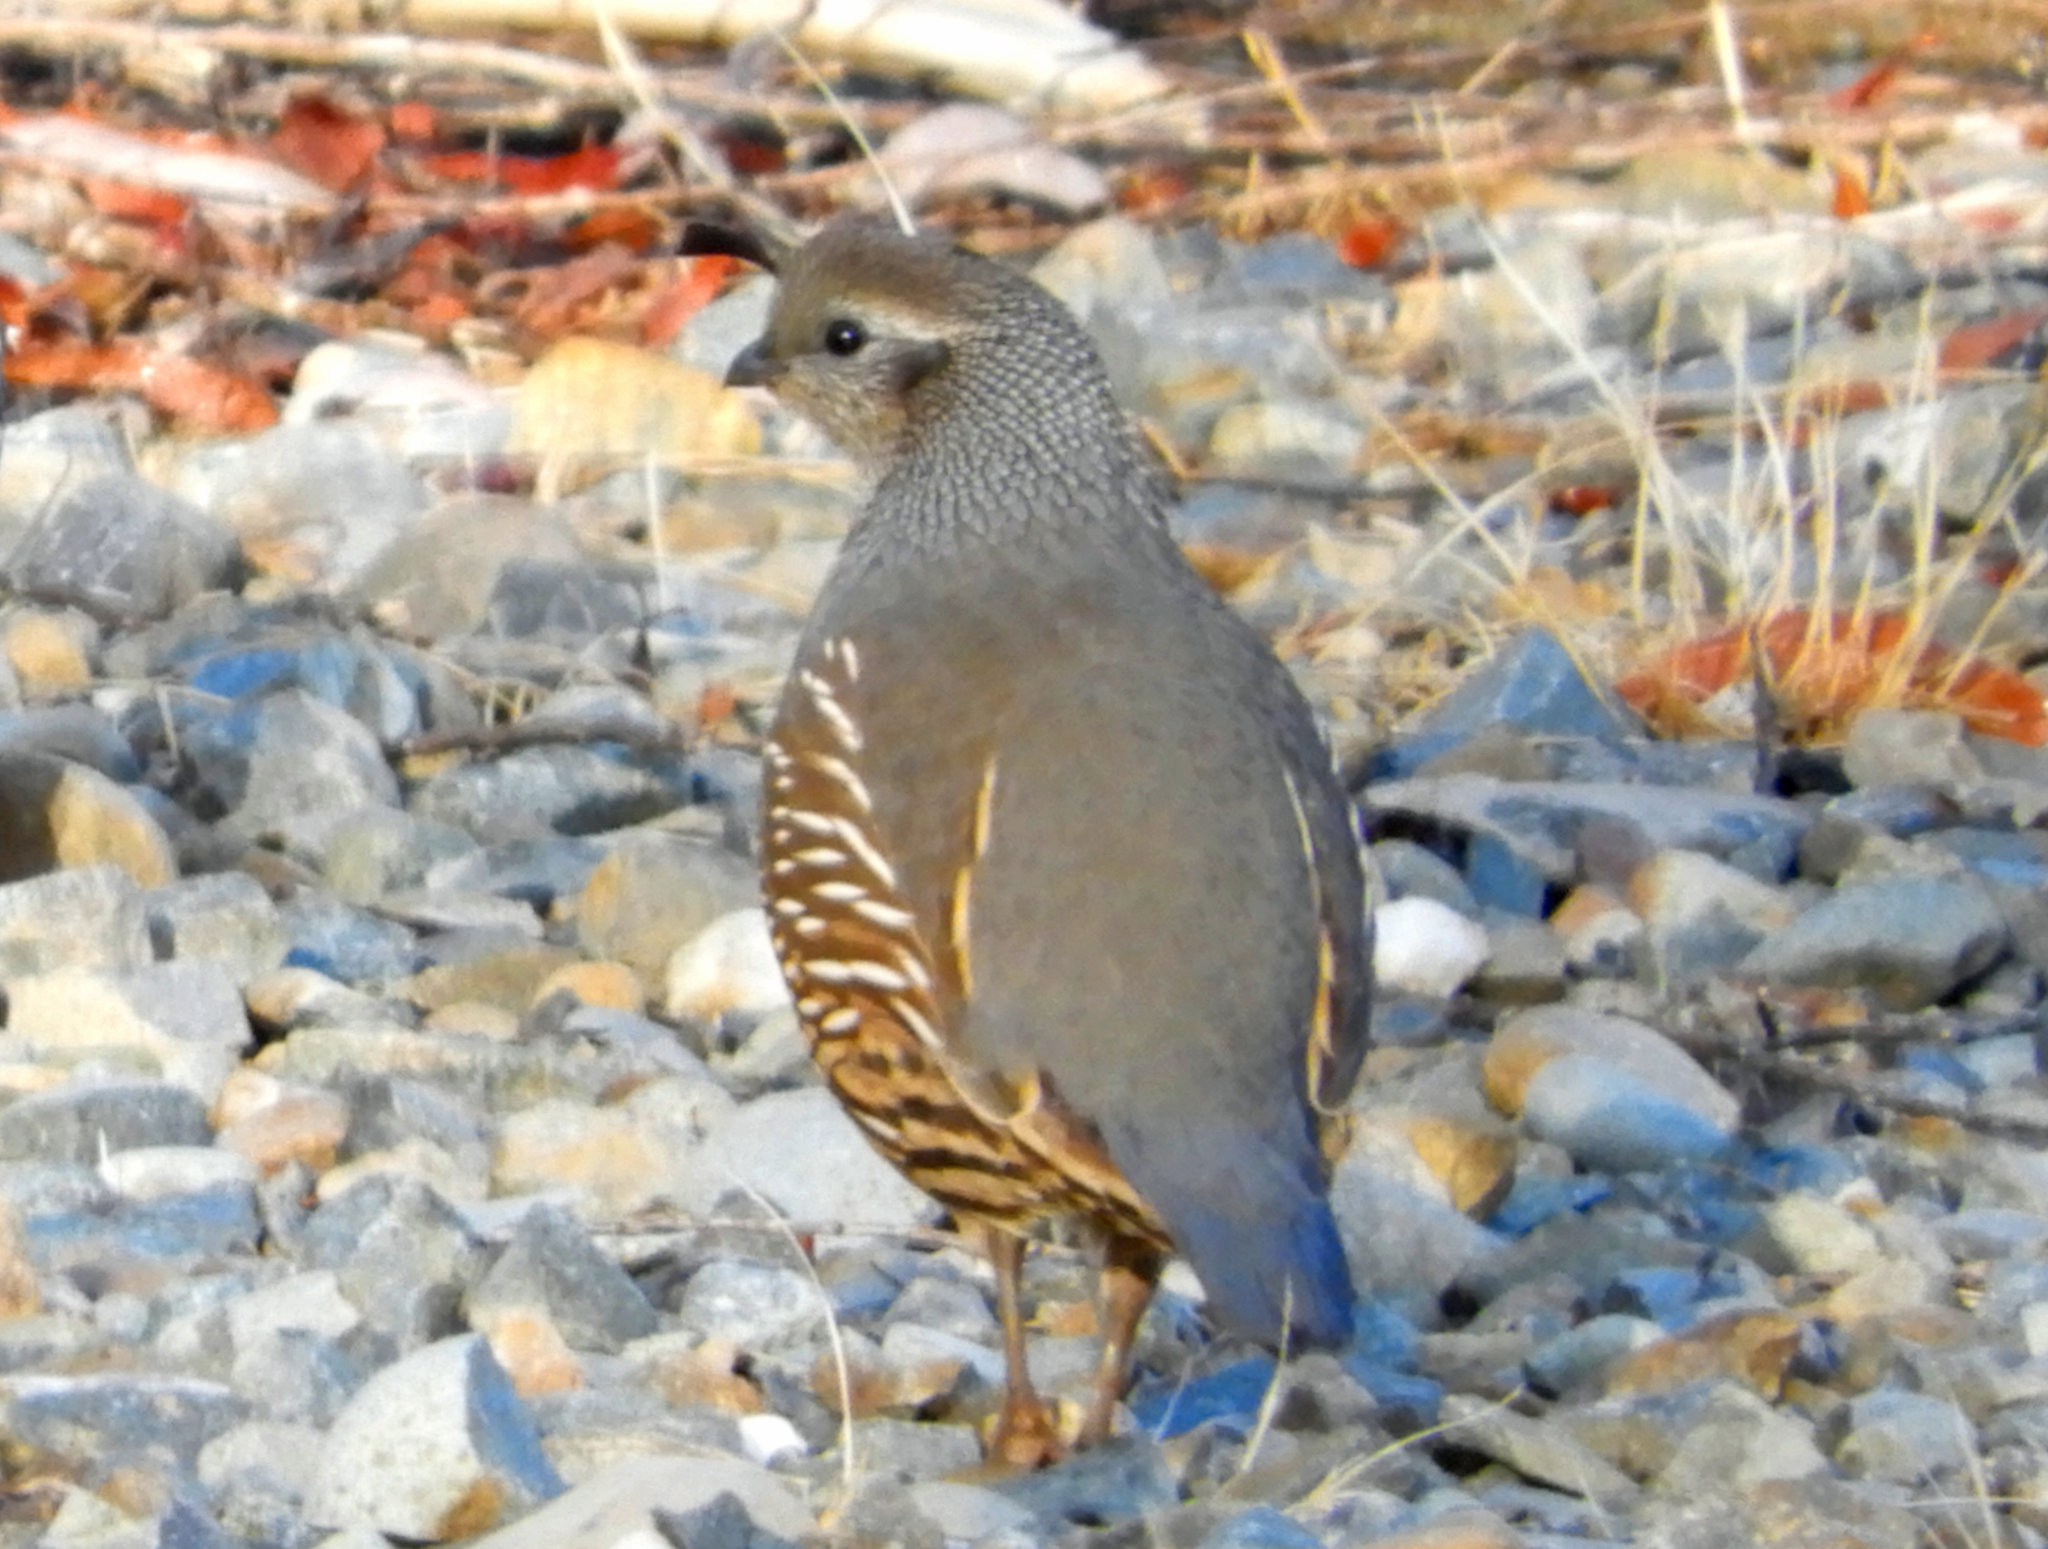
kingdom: Animalia
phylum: Chordata
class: Aves
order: Galliformes
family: Odontophoridae
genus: Callipepla
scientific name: Callipepla californica
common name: California quail
